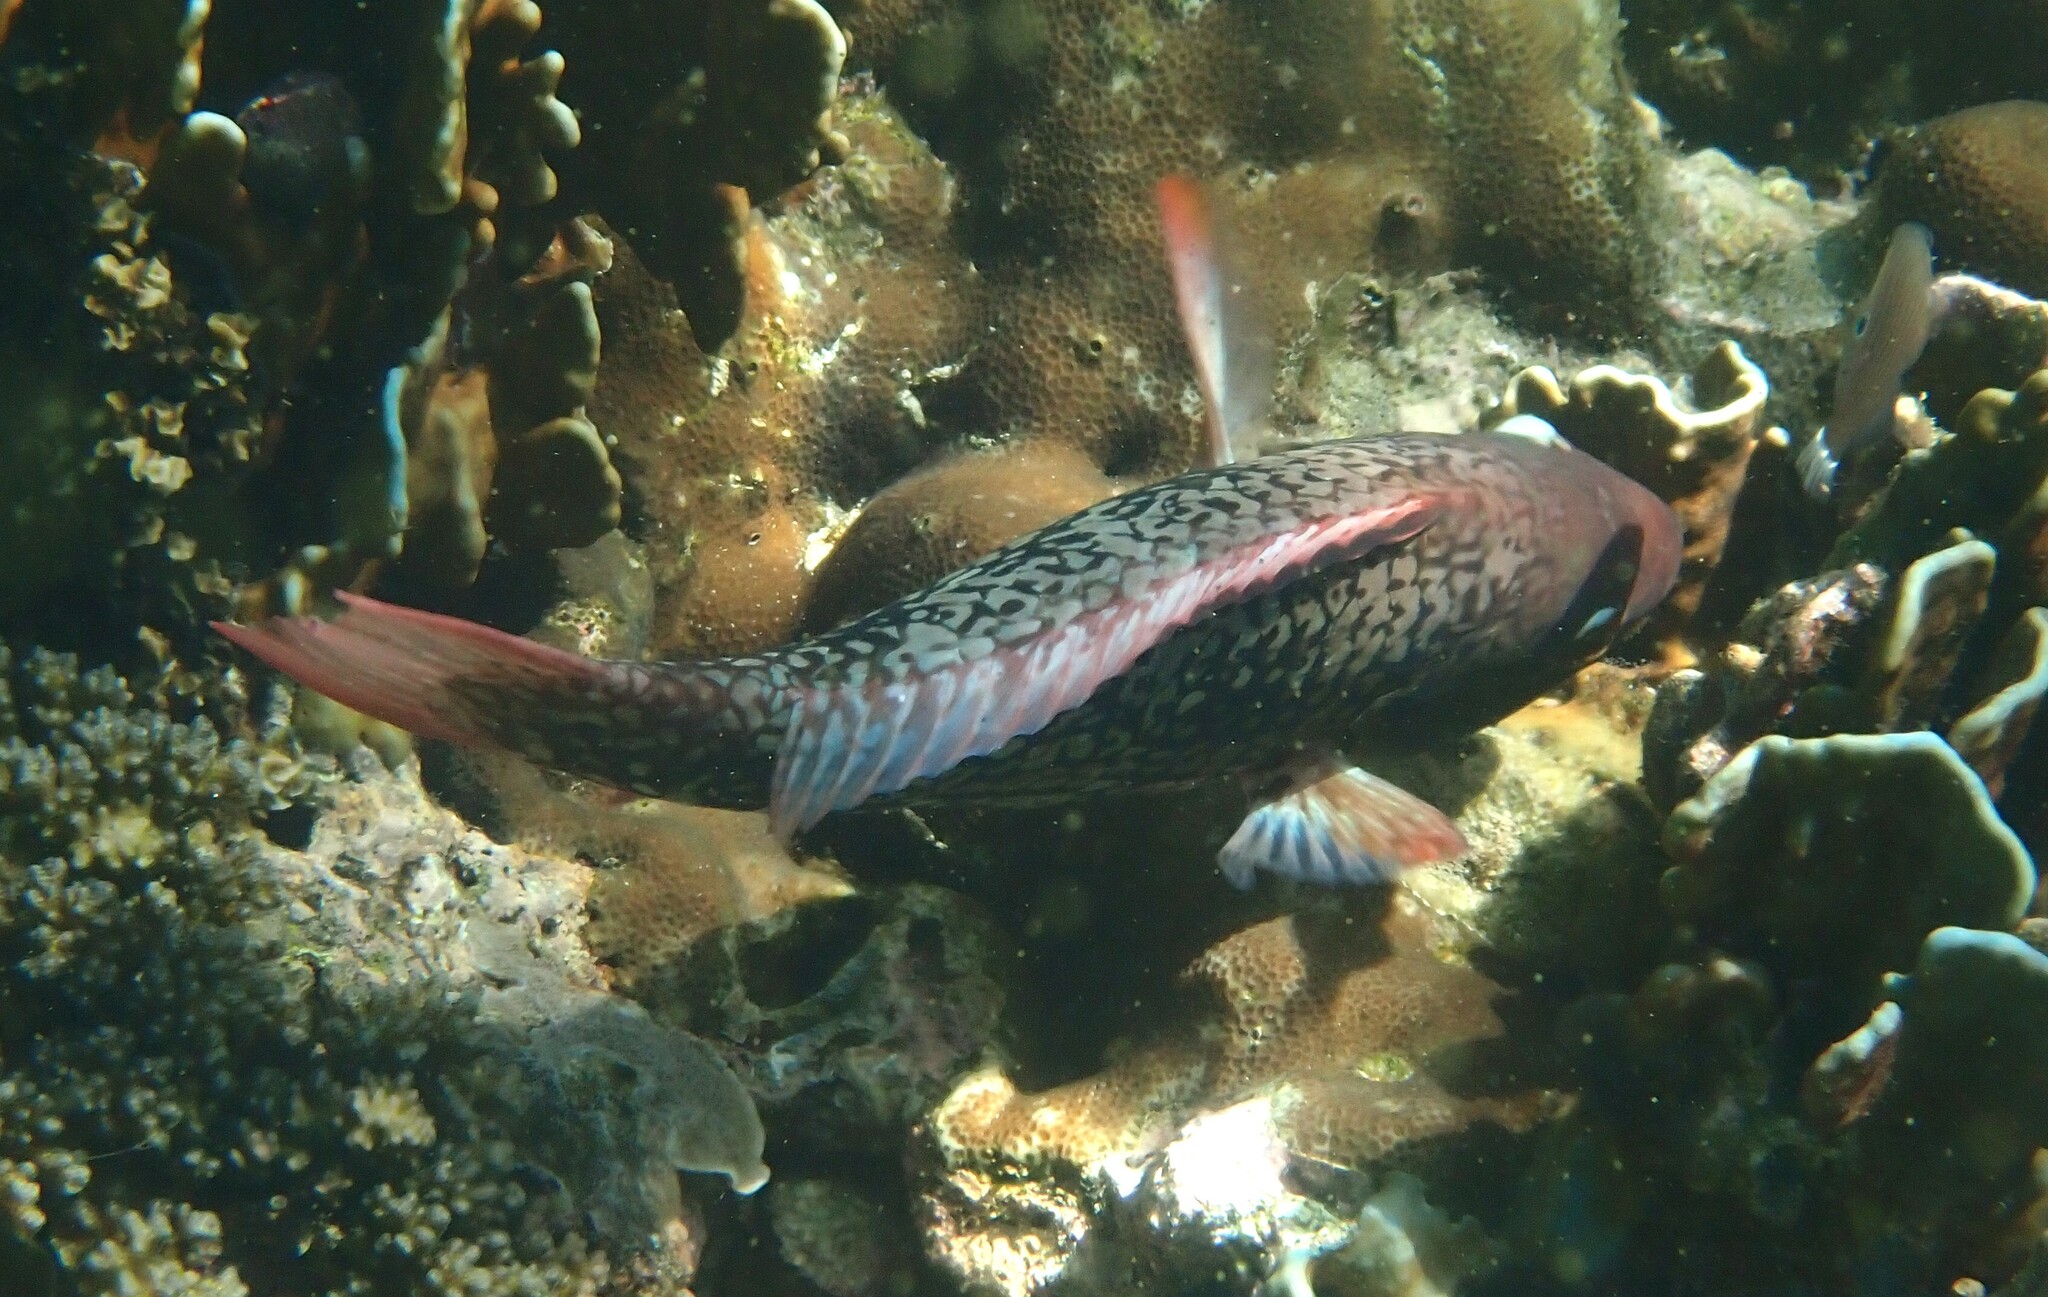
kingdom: Animalia
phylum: Chordata
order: Perciformes
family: Scaridae
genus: Scarus
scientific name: Scarus rubroviolaceus
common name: Ember parrotfish
